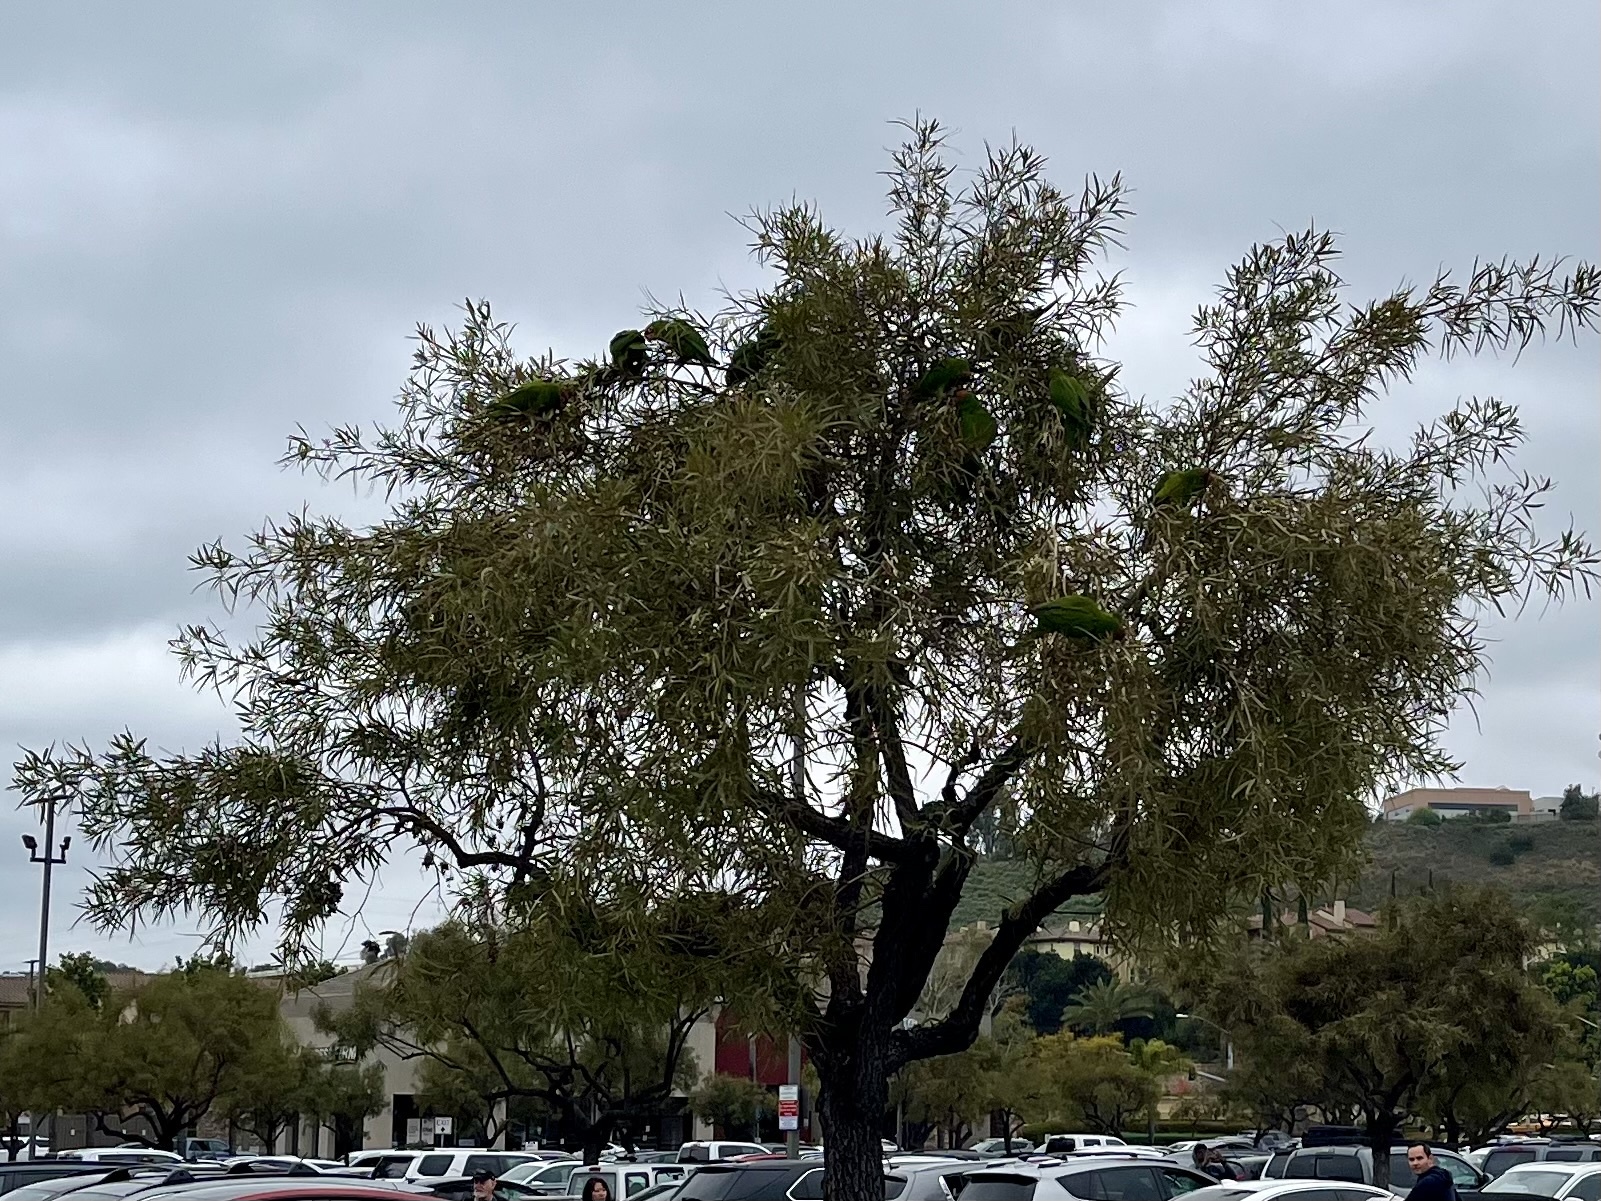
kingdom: Animalia
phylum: Chordata
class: Aves
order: Psittaciformes
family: Psittacidae
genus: Aratinga
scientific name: Aratinga erythrogenys
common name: Red-masked parakeet
